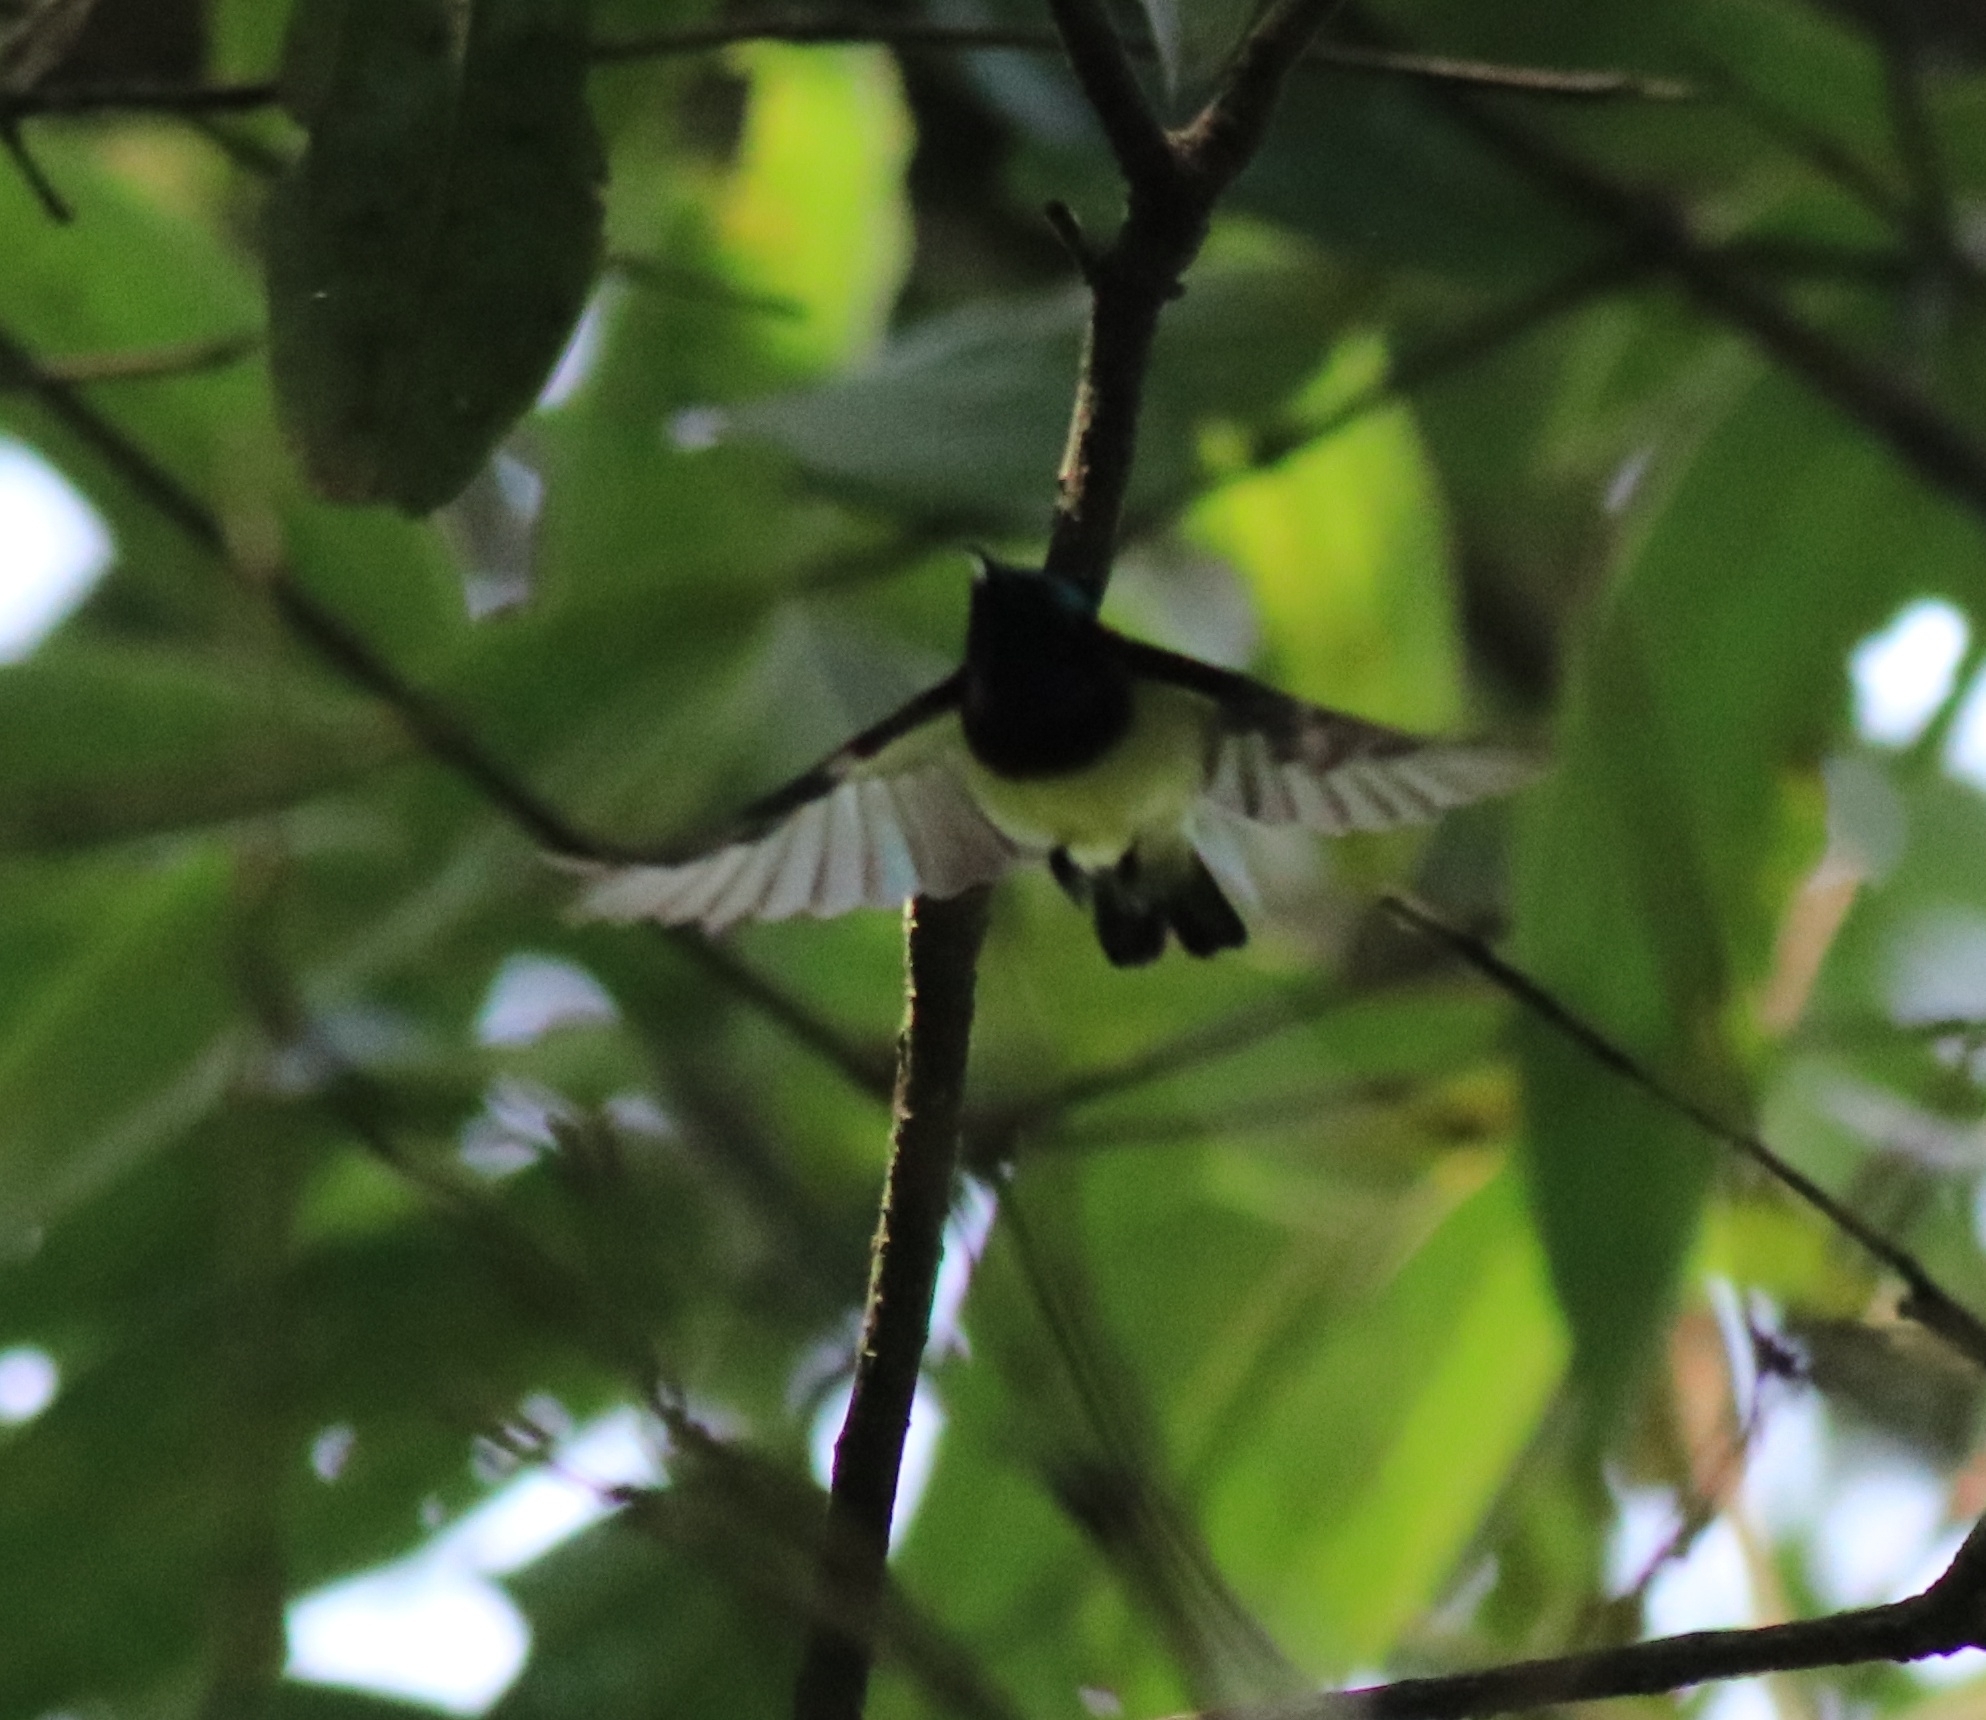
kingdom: Animalia
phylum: Chordata
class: Aves
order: Passeriformes
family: Nectariniidae
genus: Leptocoma
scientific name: Leptocoma minima
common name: Crimson-backed sunbird
